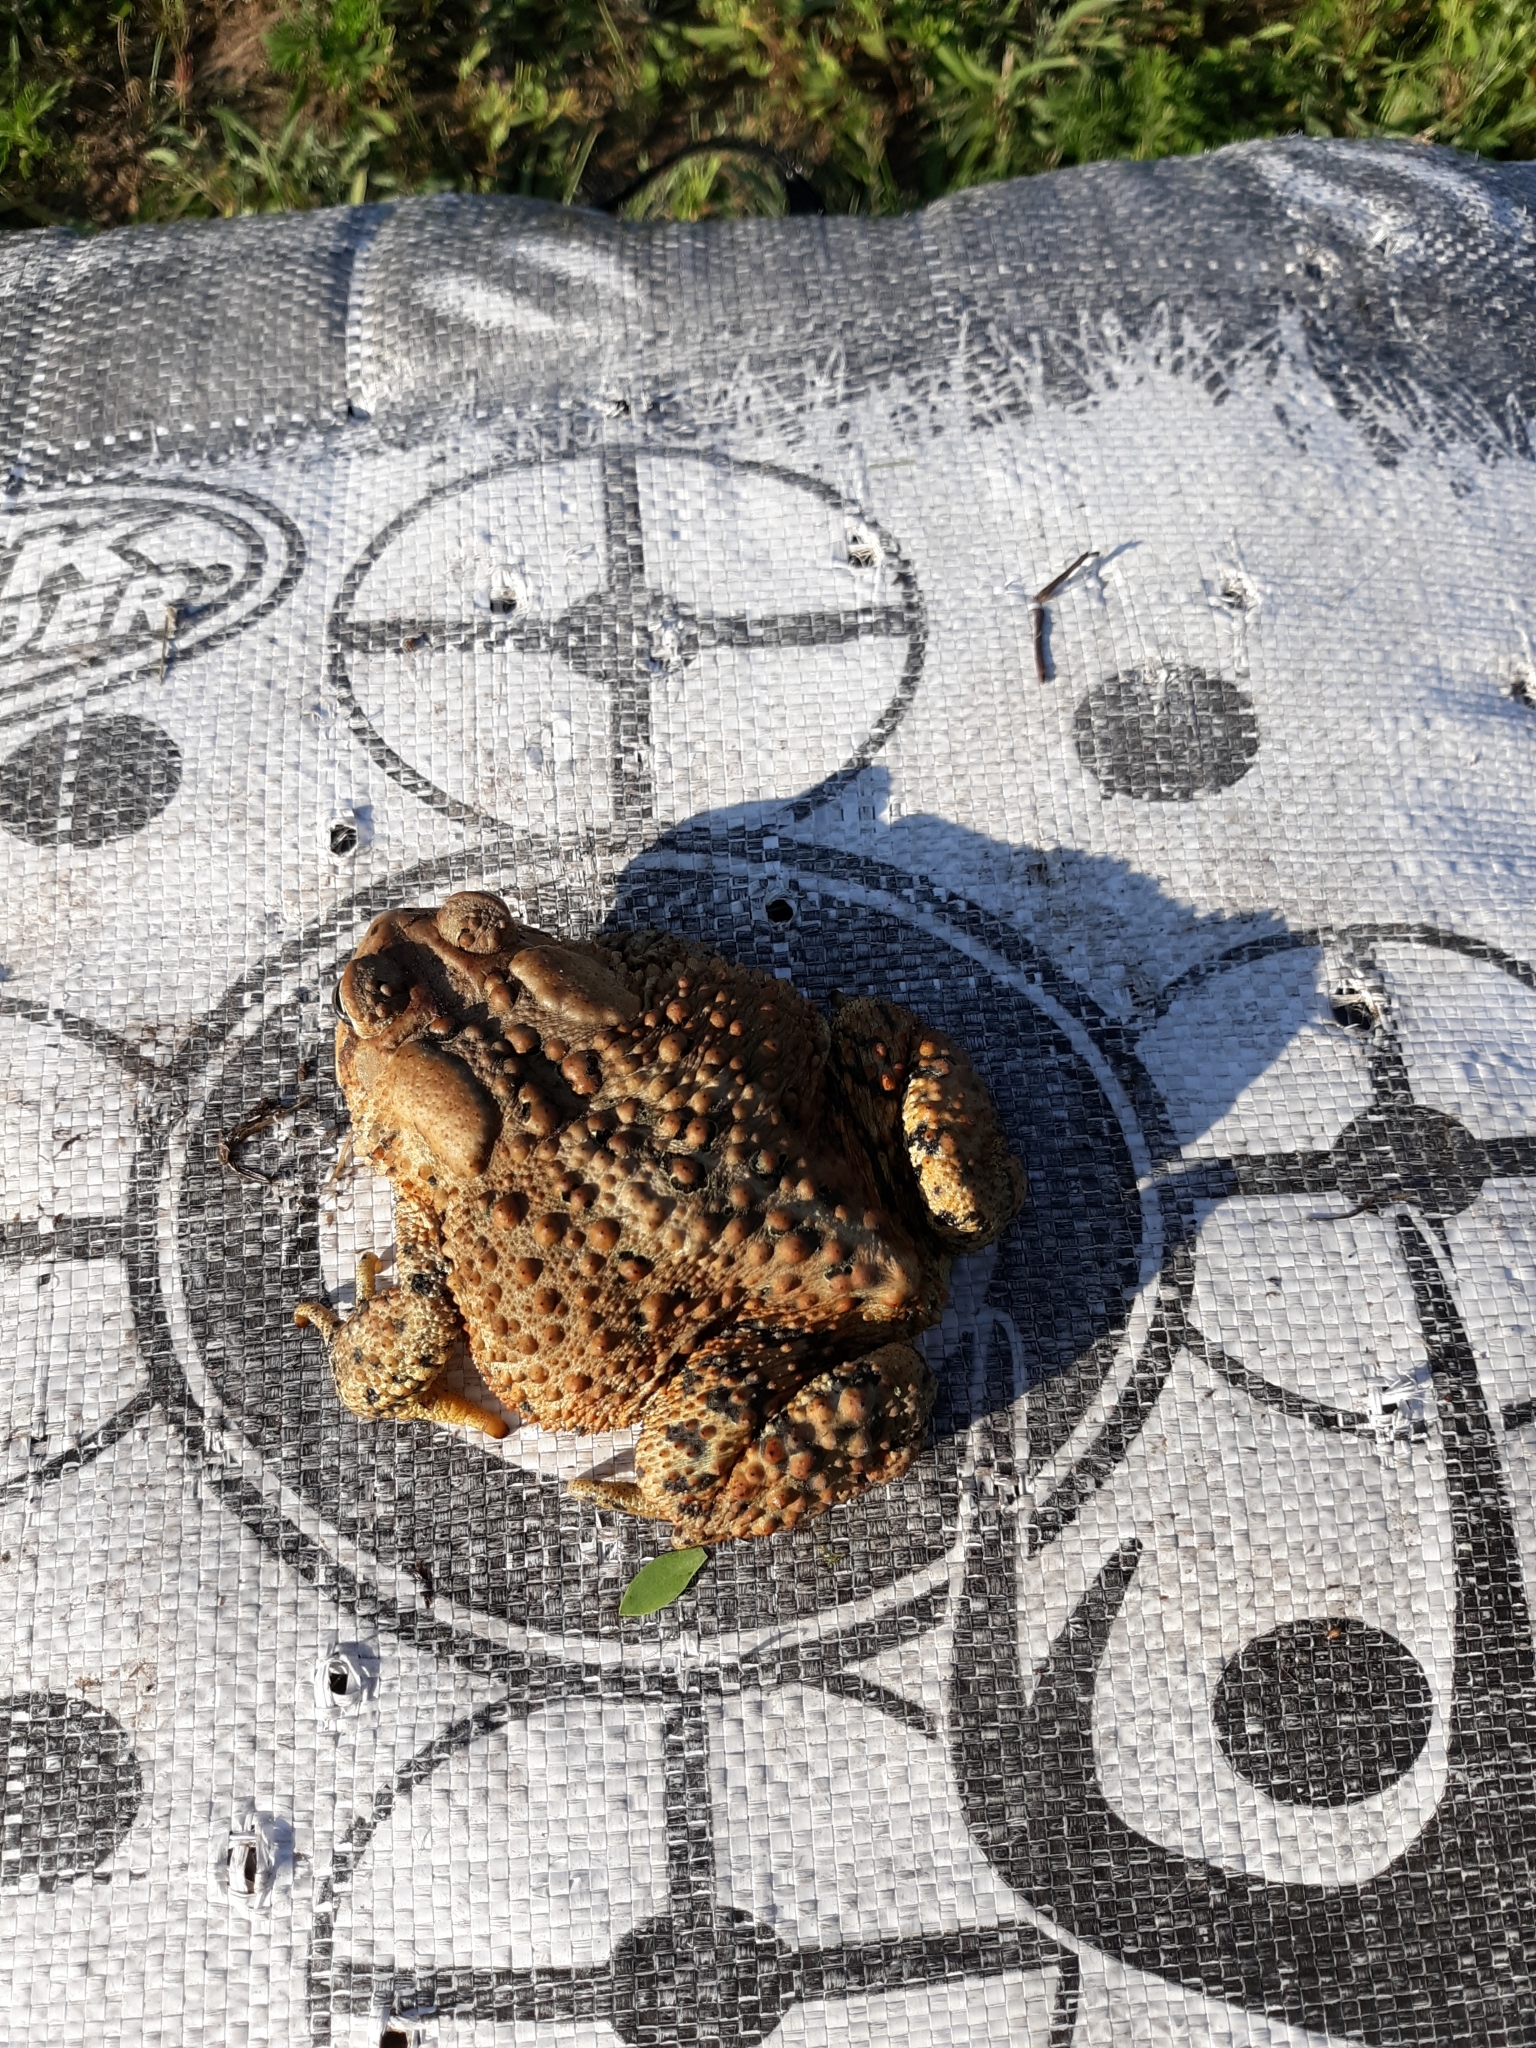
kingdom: Animalia
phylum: Chordata
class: Amphibia
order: Anura
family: Bufonidae
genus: Anaxyrus
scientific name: Anaxyrus americanus
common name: American toad
